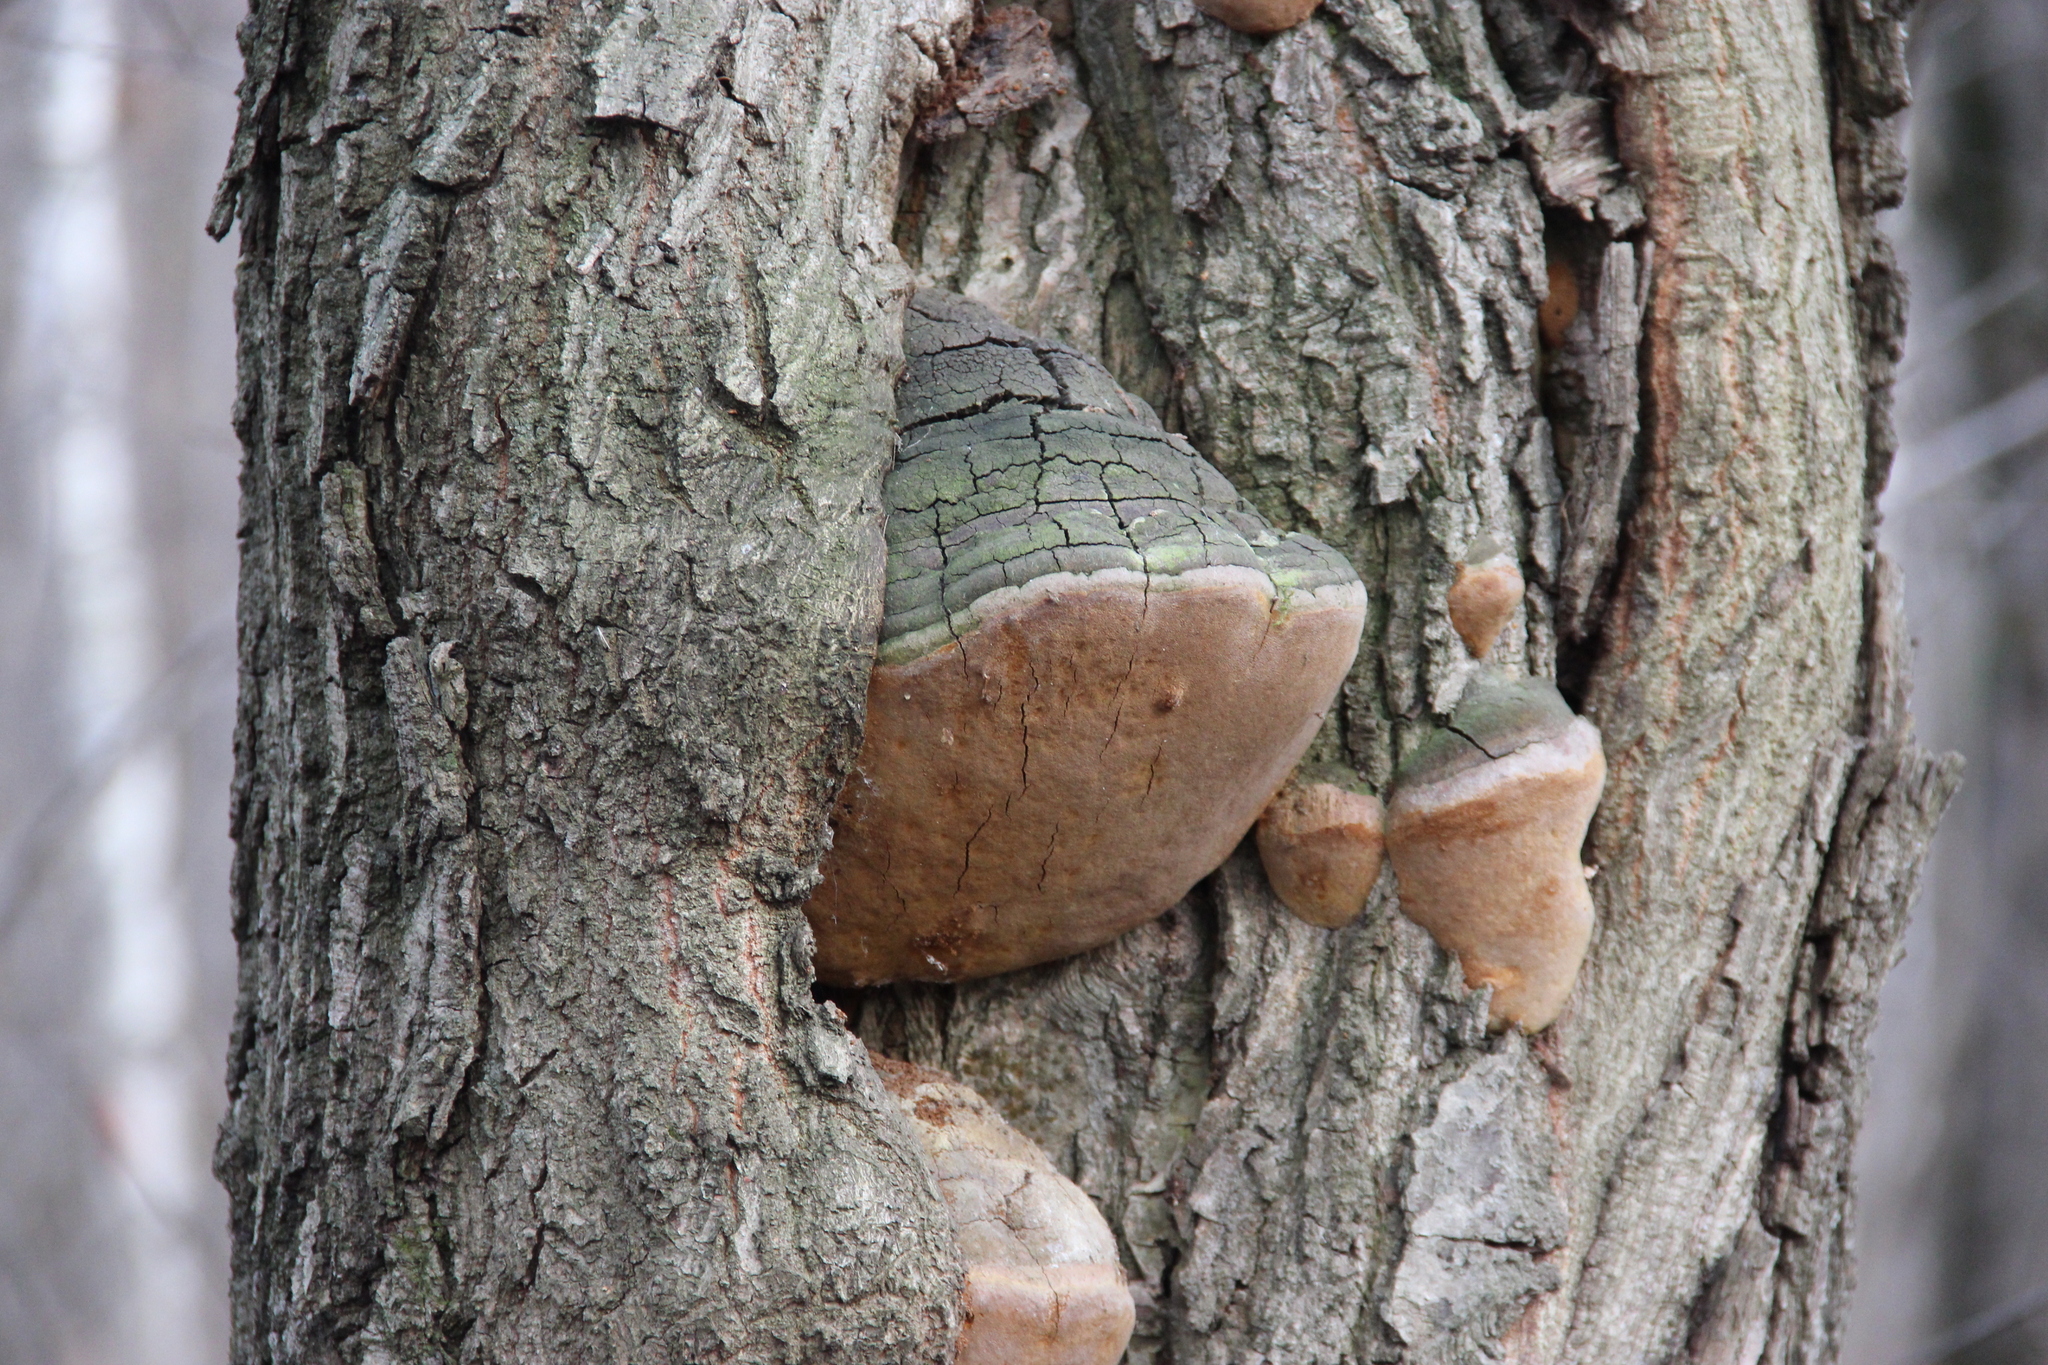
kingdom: Fungi
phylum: Basidiomycota
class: Agaricomycetes
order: Hymenochaetales
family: Hymenochaetaceae
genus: Fomitiporia
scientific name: Fomitiporia robusta
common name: Robust bracket
